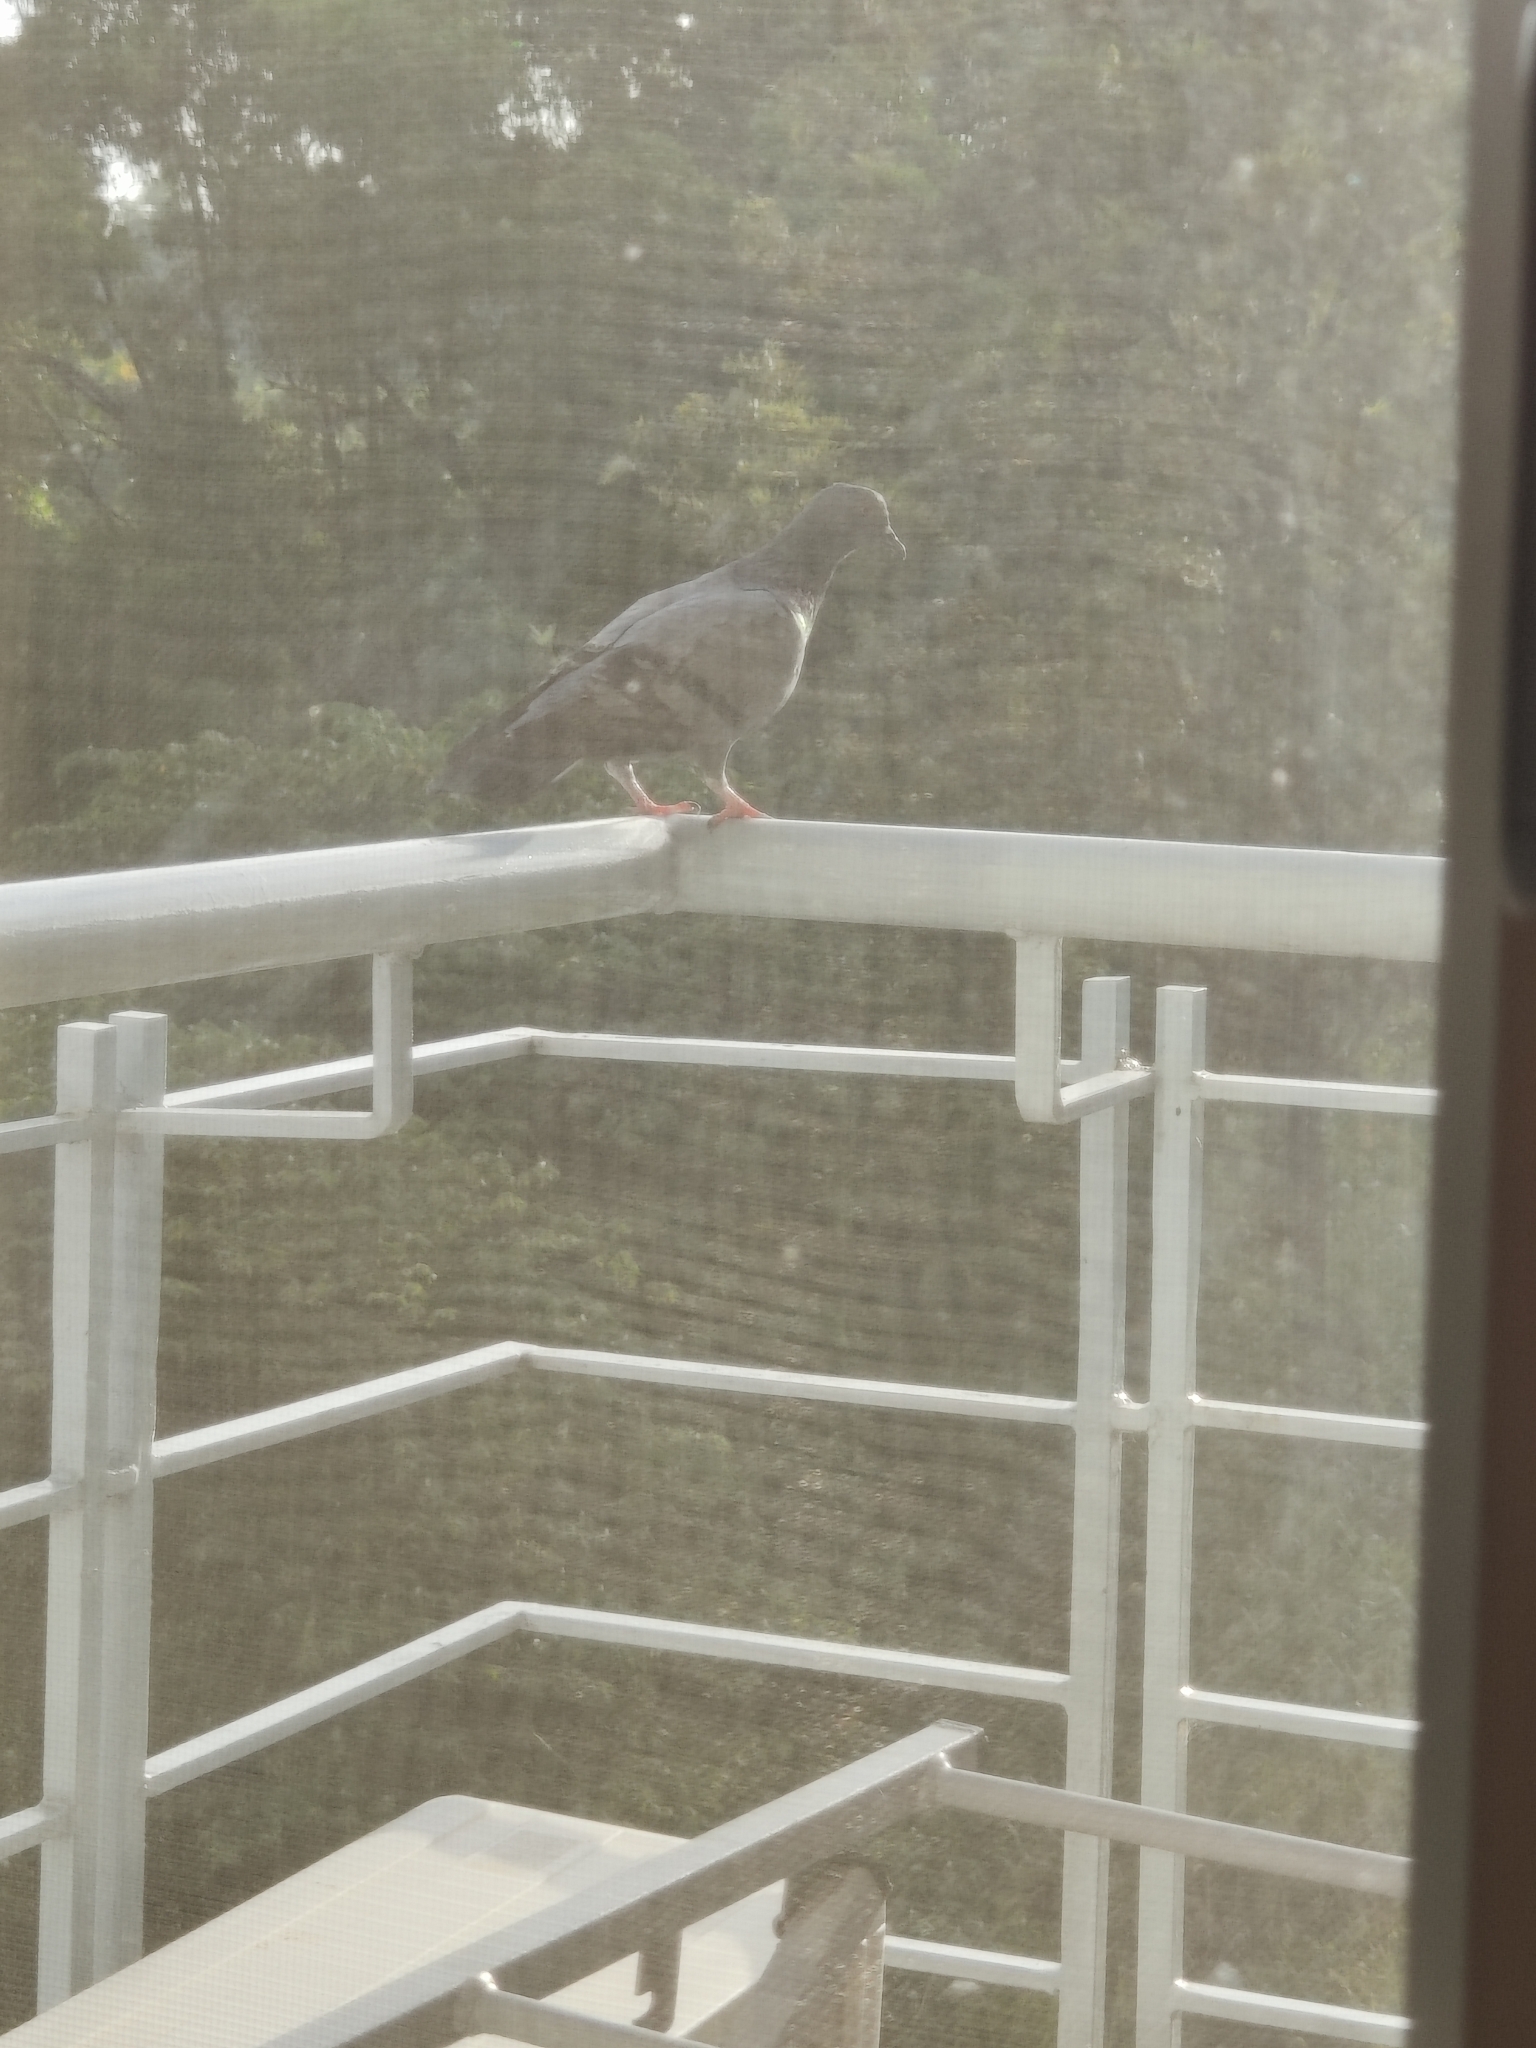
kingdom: Animalia
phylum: Chordata
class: Aves
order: Columbiformes
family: Columbidae
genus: Columba
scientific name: Columba livia
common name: Rock pigeon
